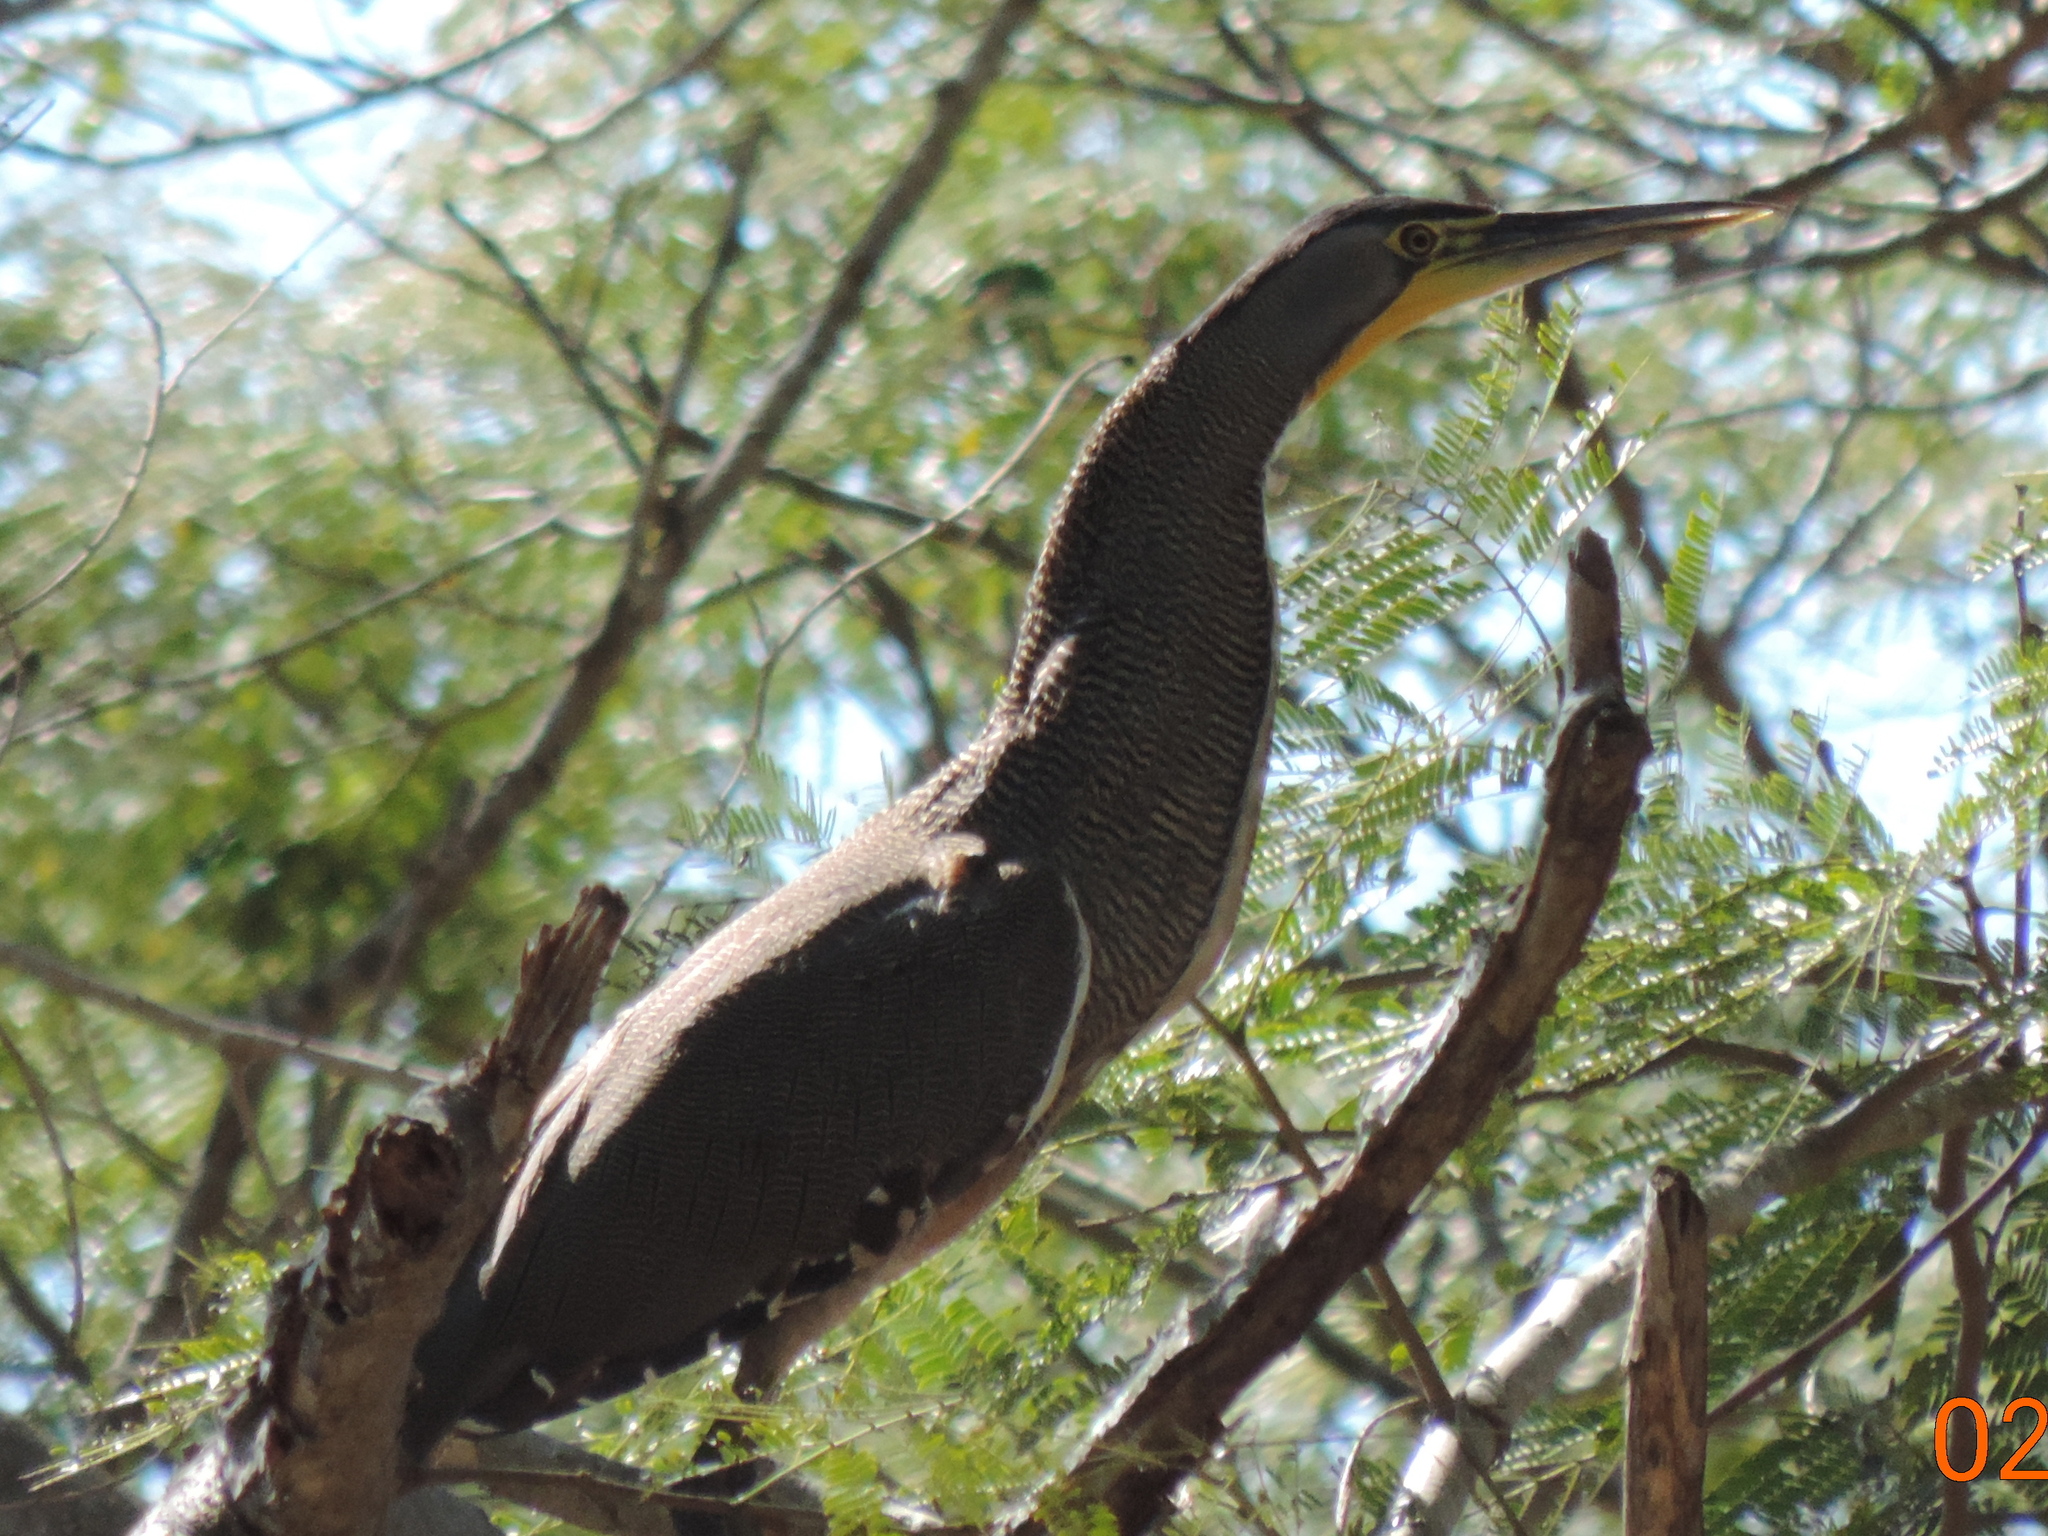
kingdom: Animalia
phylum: Chordata
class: Aves
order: Pelecaniformes
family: Ardeidae
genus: Tigrisoma
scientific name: Tigrisoma mexicanum
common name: Bare-throated tiger-heron
